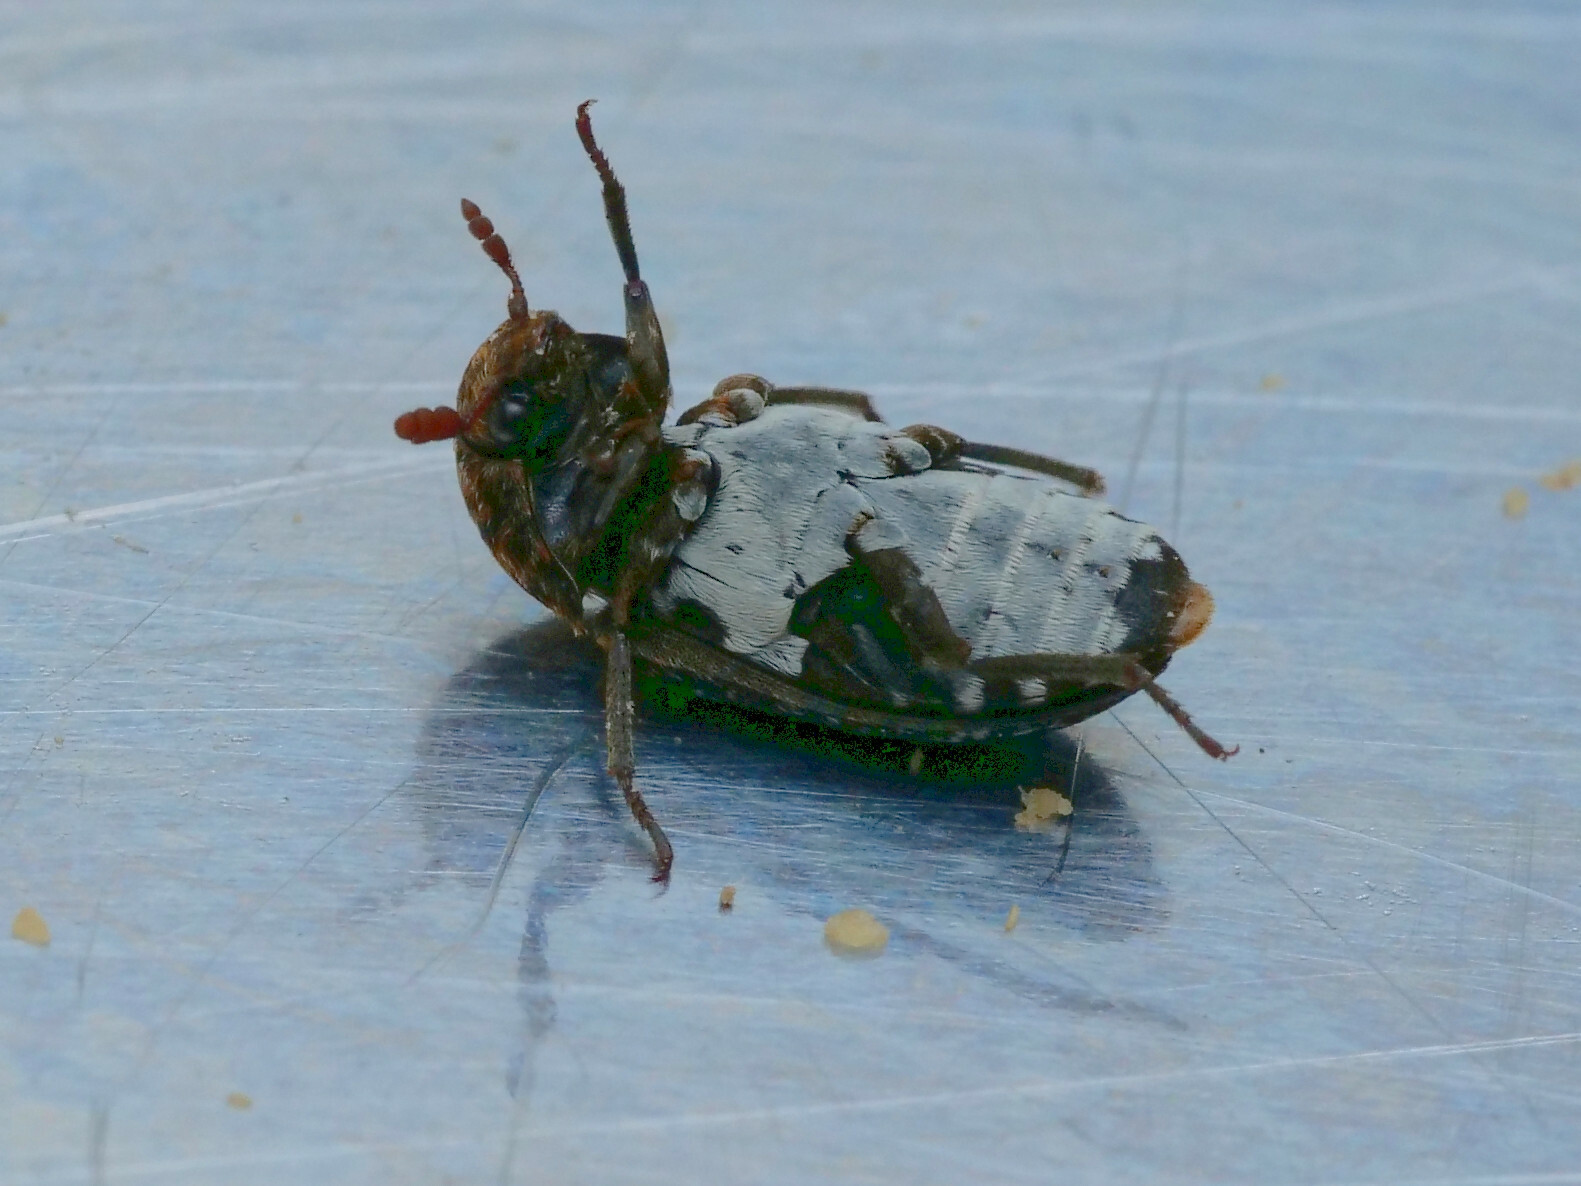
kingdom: Animalia
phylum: Arthropoda
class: Insecta
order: Coleoptera
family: Dermestidae
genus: Dermestes
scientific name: Dermestes undulatus
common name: Wavy carpet beetle
